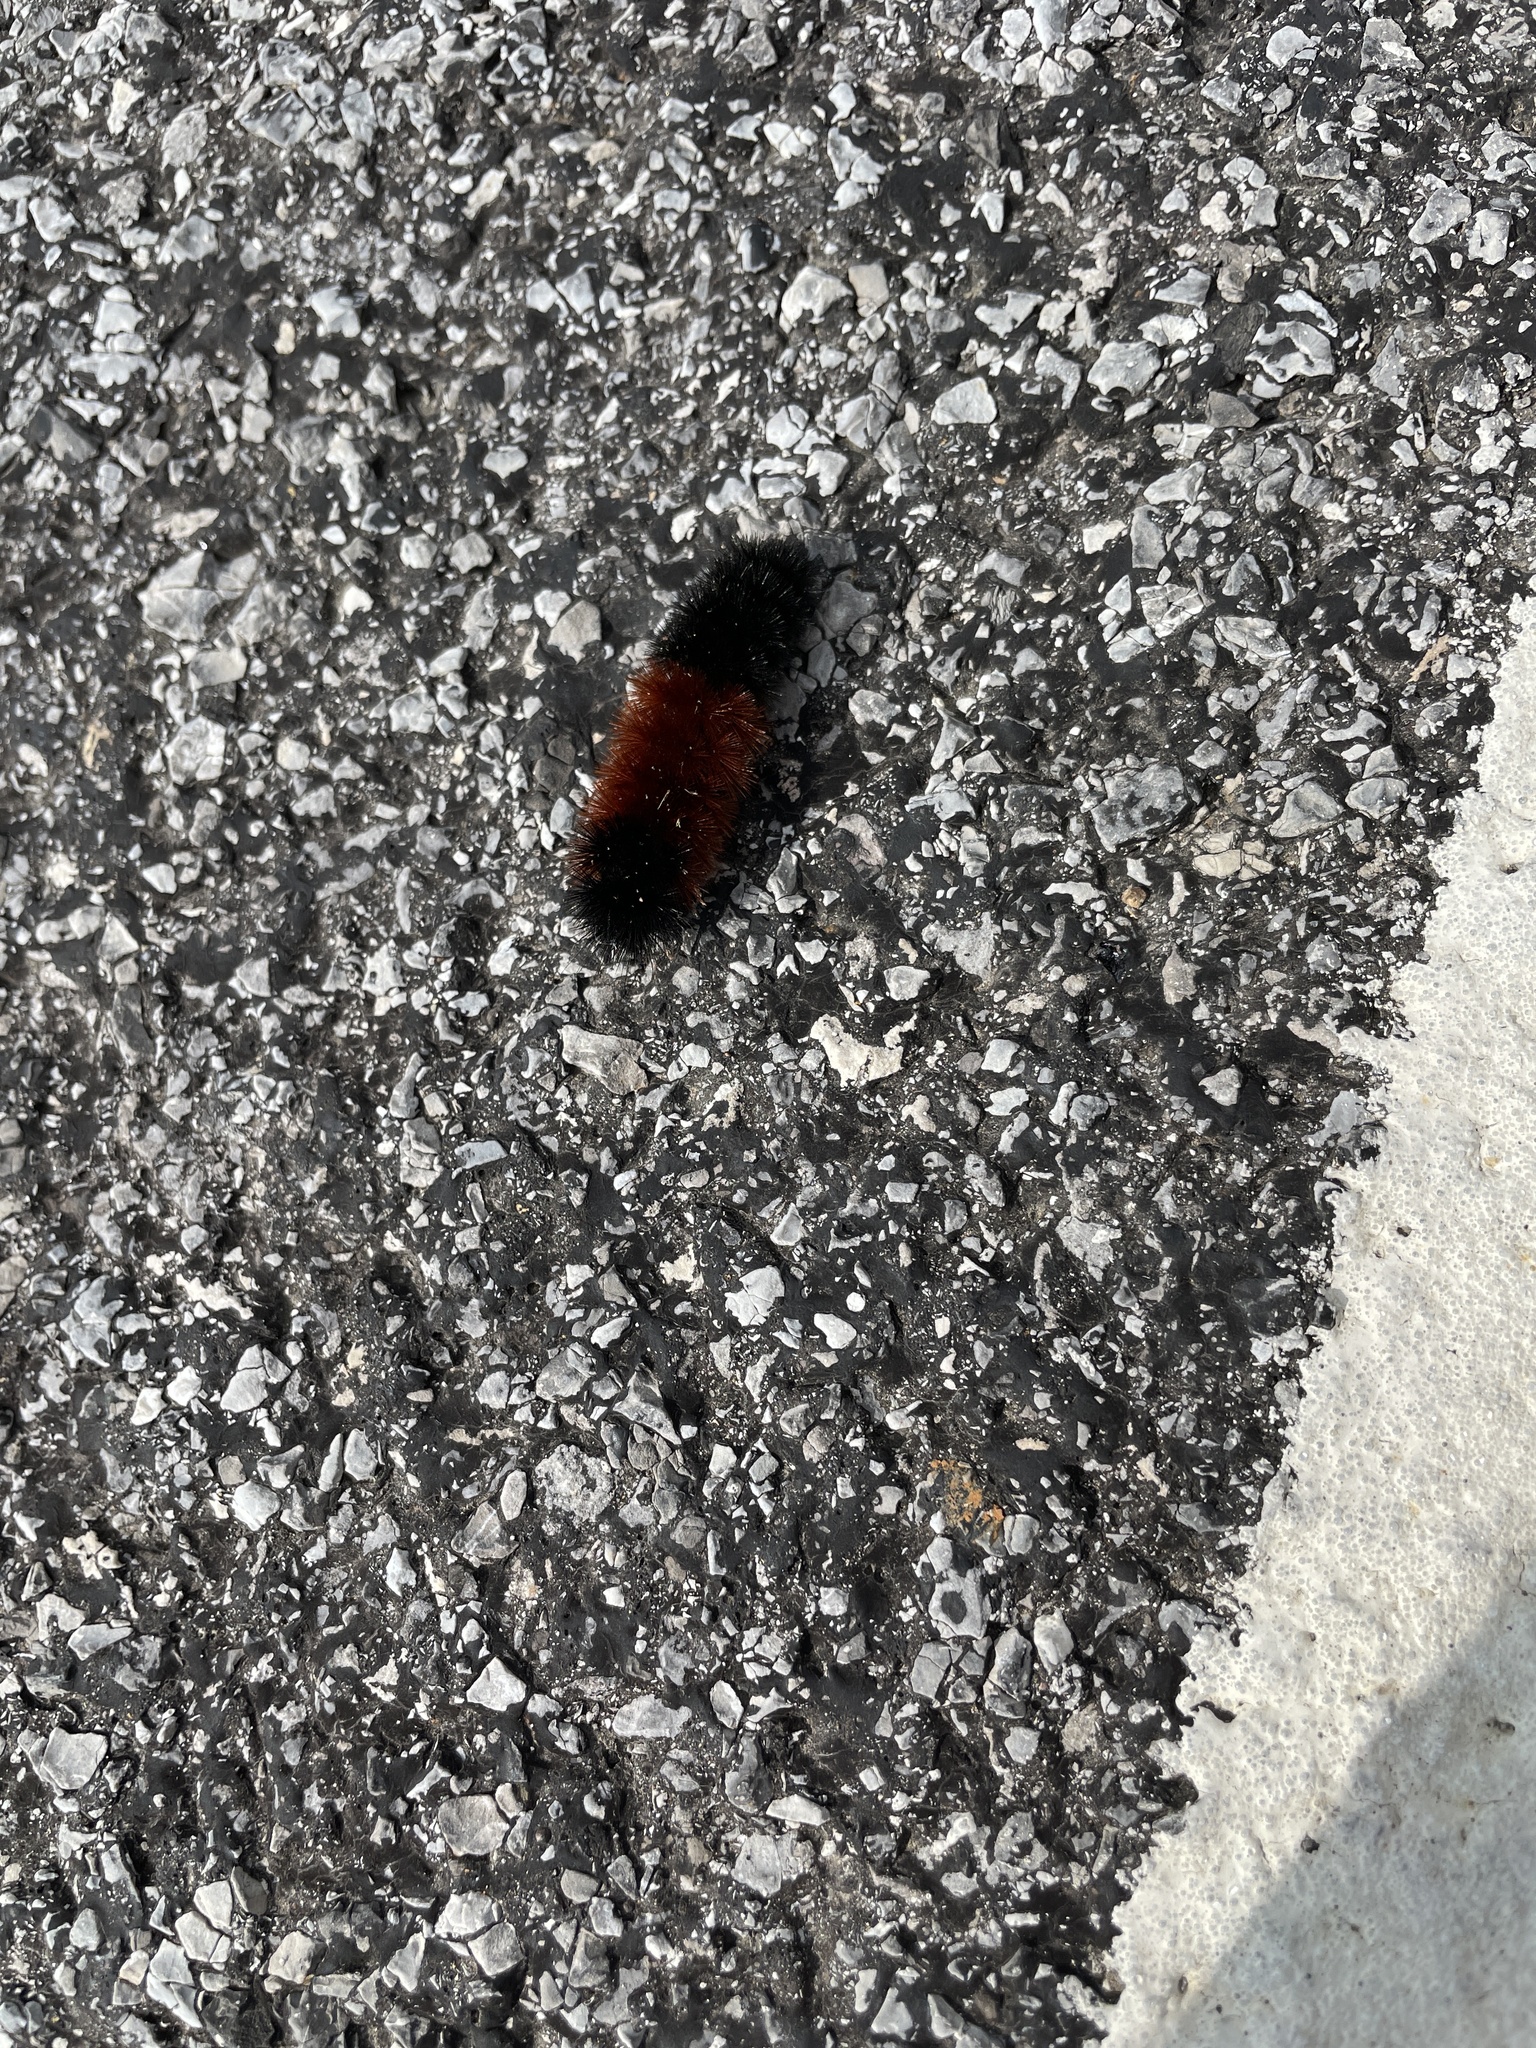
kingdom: Animalia
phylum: Arthropoda
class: Insecta
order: Lepidoptera
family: Erebidae
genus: Pyrrharctia
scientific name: Pyrrharctia isabella
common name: Isabella tiger moth
